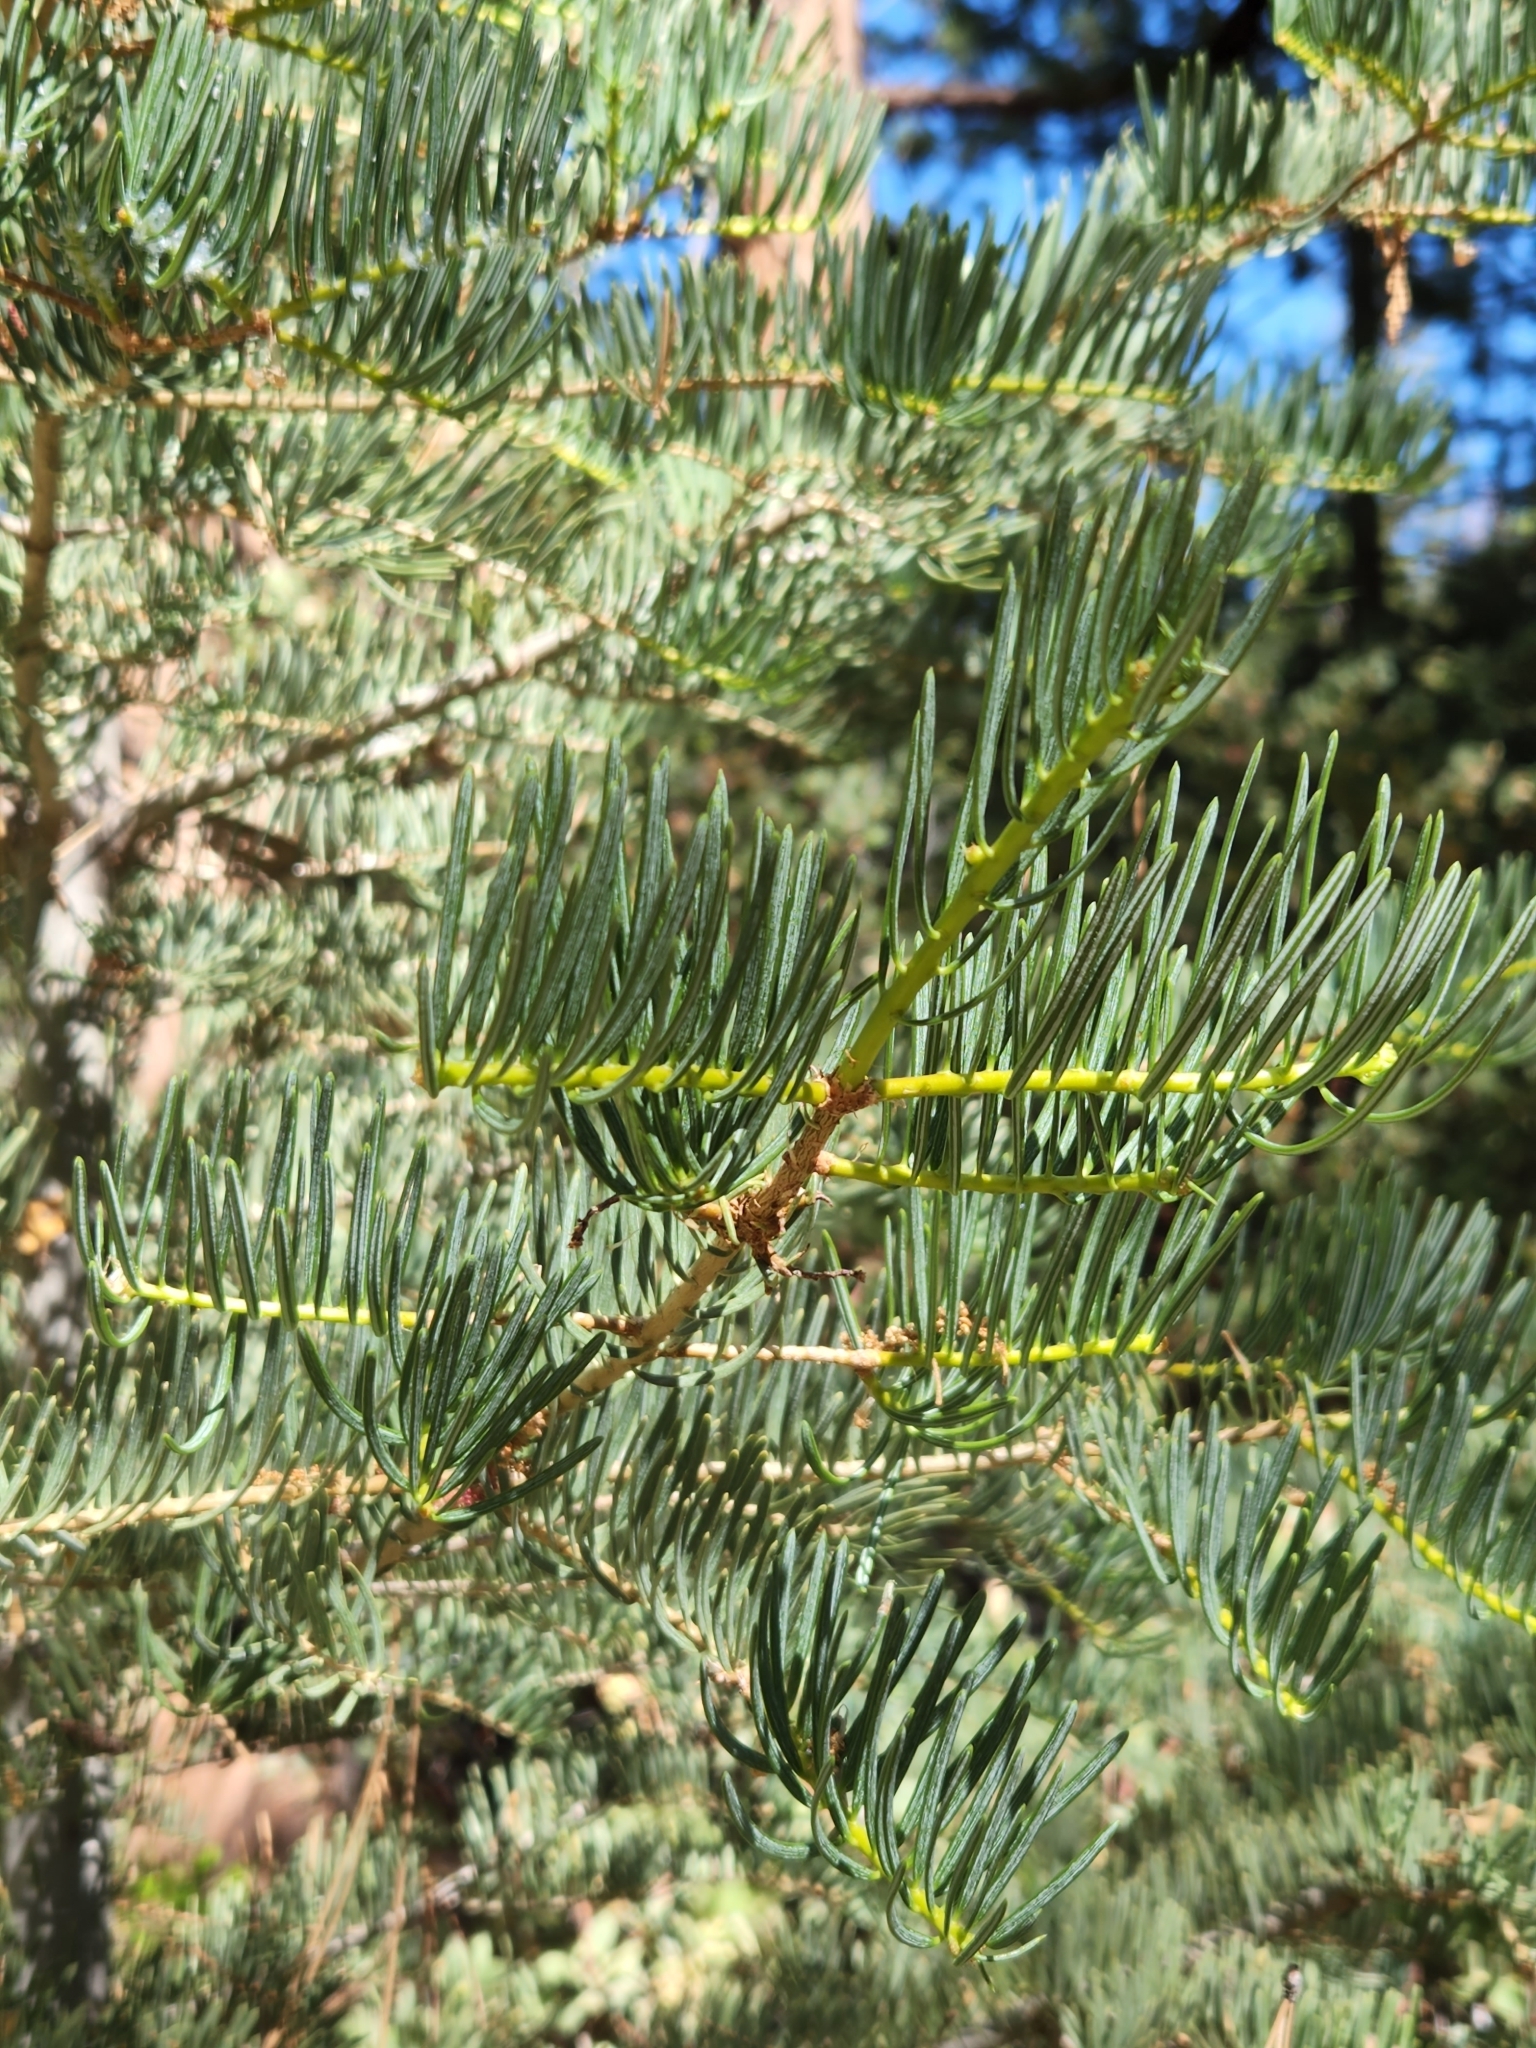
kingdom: Plantae
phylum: Tracheophyta
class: Pinopsida
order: Pinales
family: Pinaceae
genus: Abies
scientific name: Abies concolor
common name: Colorado fir
